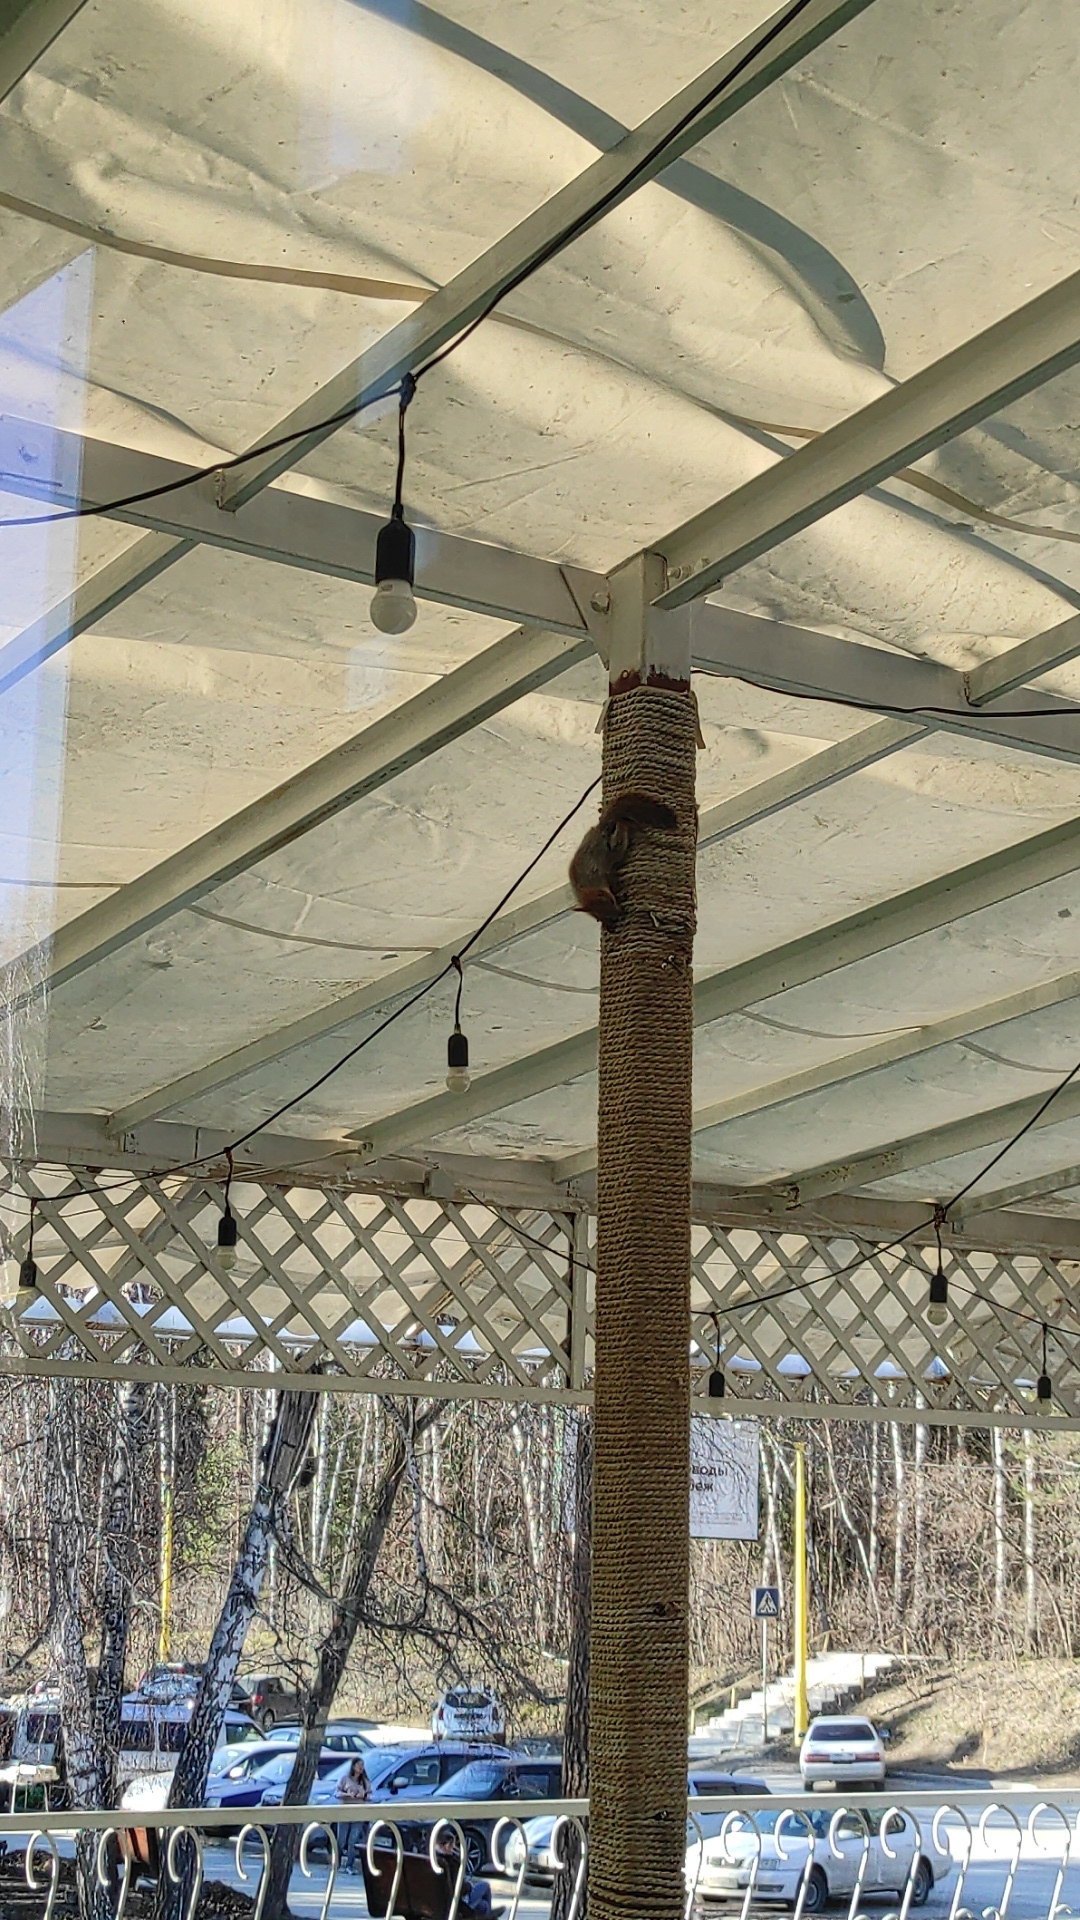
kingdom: Animalia
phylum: Chordata
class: Mammalia
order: Rodentia
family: Sciuridae
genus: Sciurus
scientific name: Sciurus vulgaris
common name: Eurasian red squirrel
